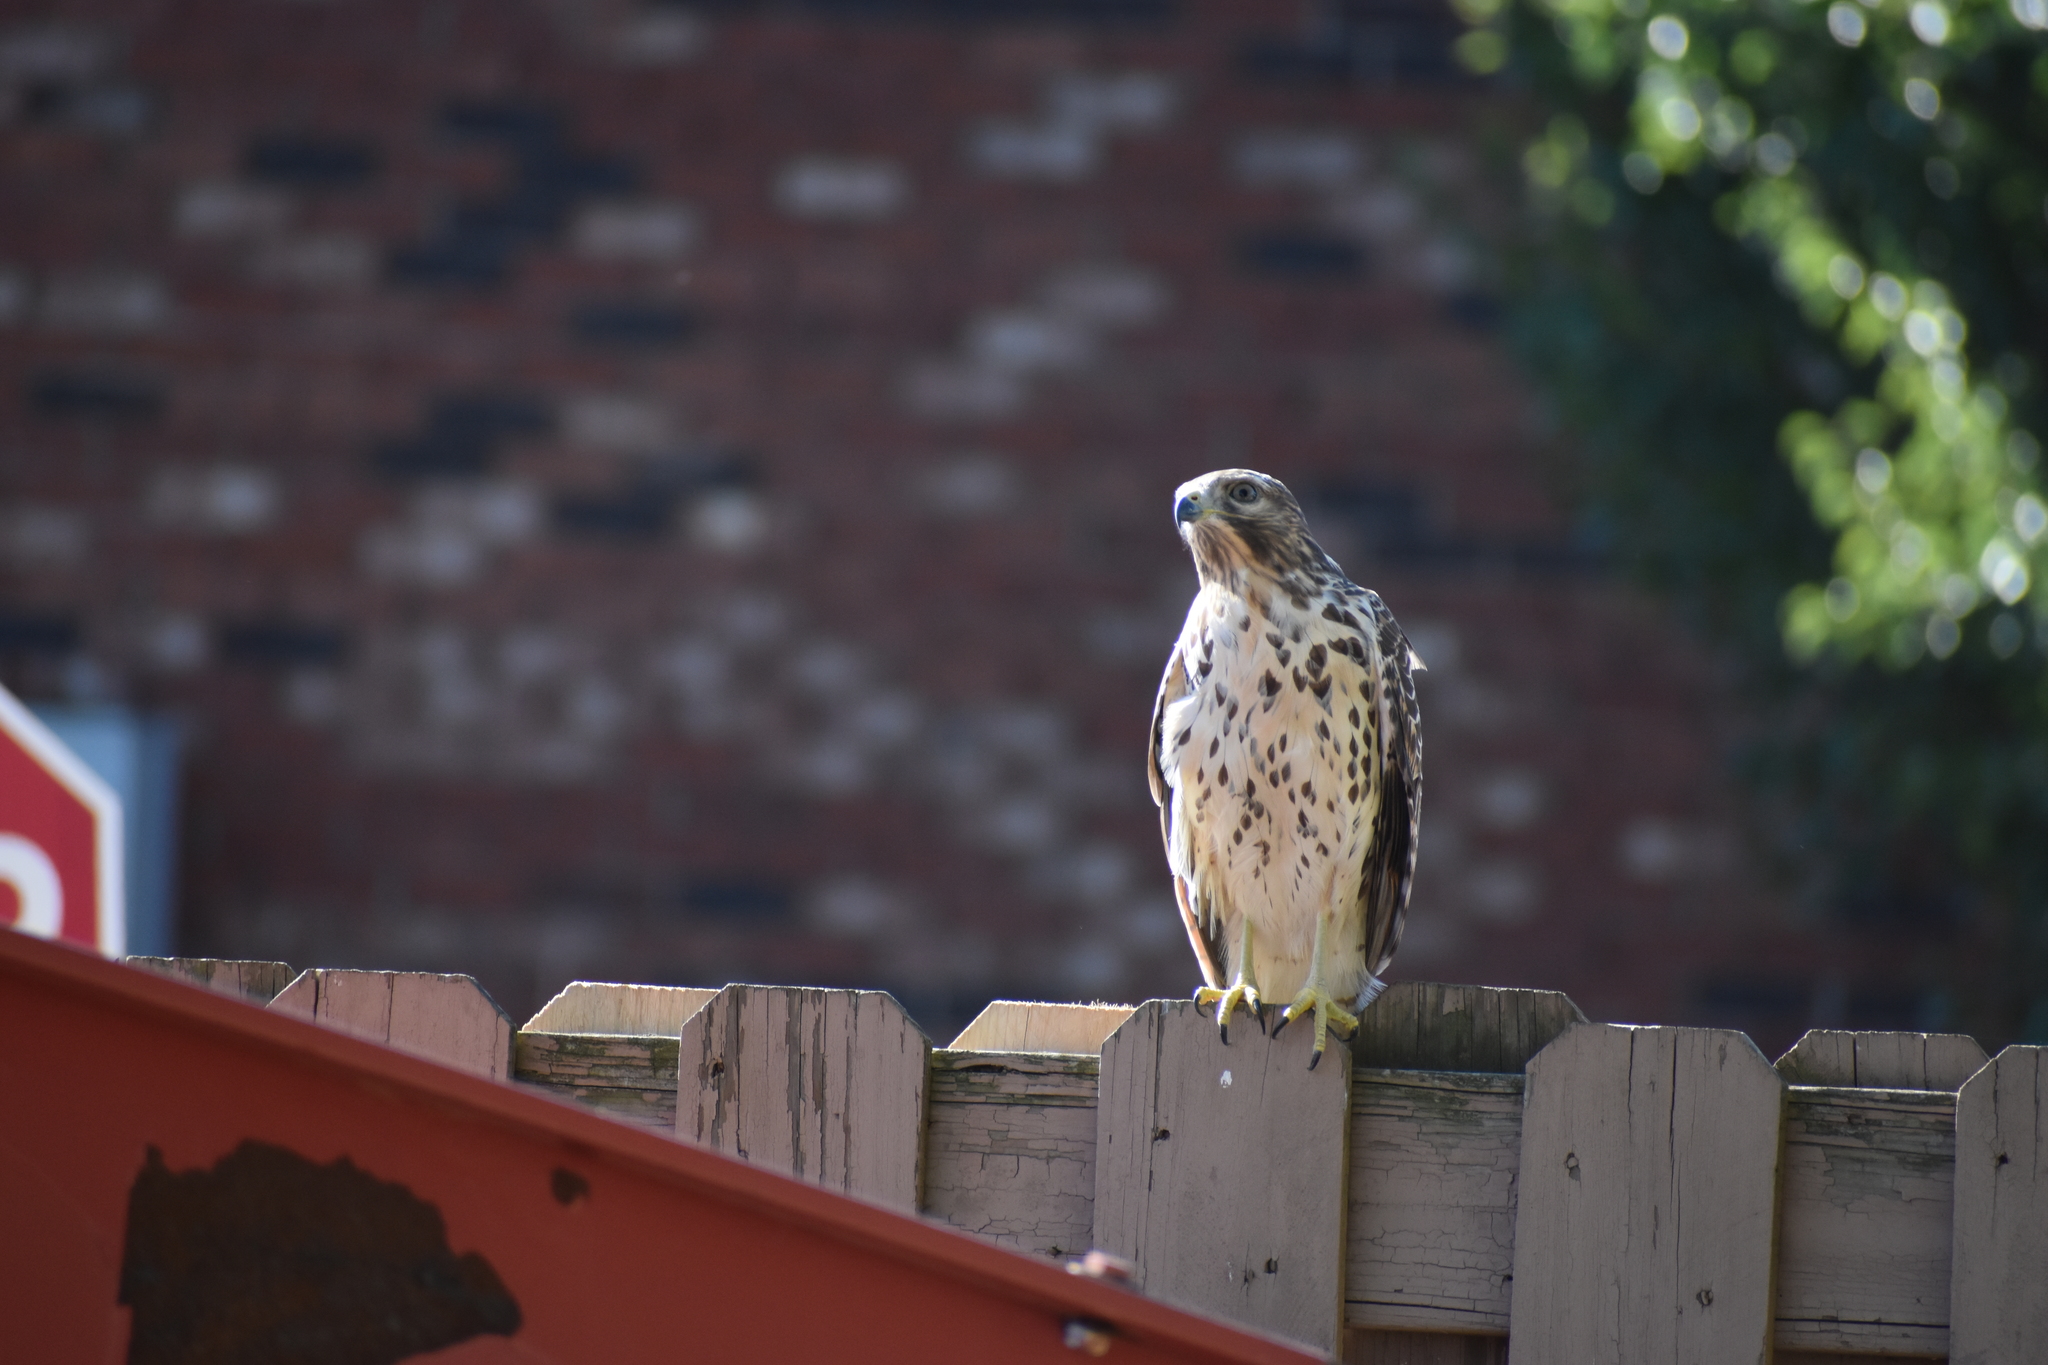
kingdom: Animalia
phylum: Chordata
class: Aves
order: Accipitriformes
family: Accipitridae
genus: Buteo
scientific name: Buteo lineatus
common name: Red-shouldered hawk
